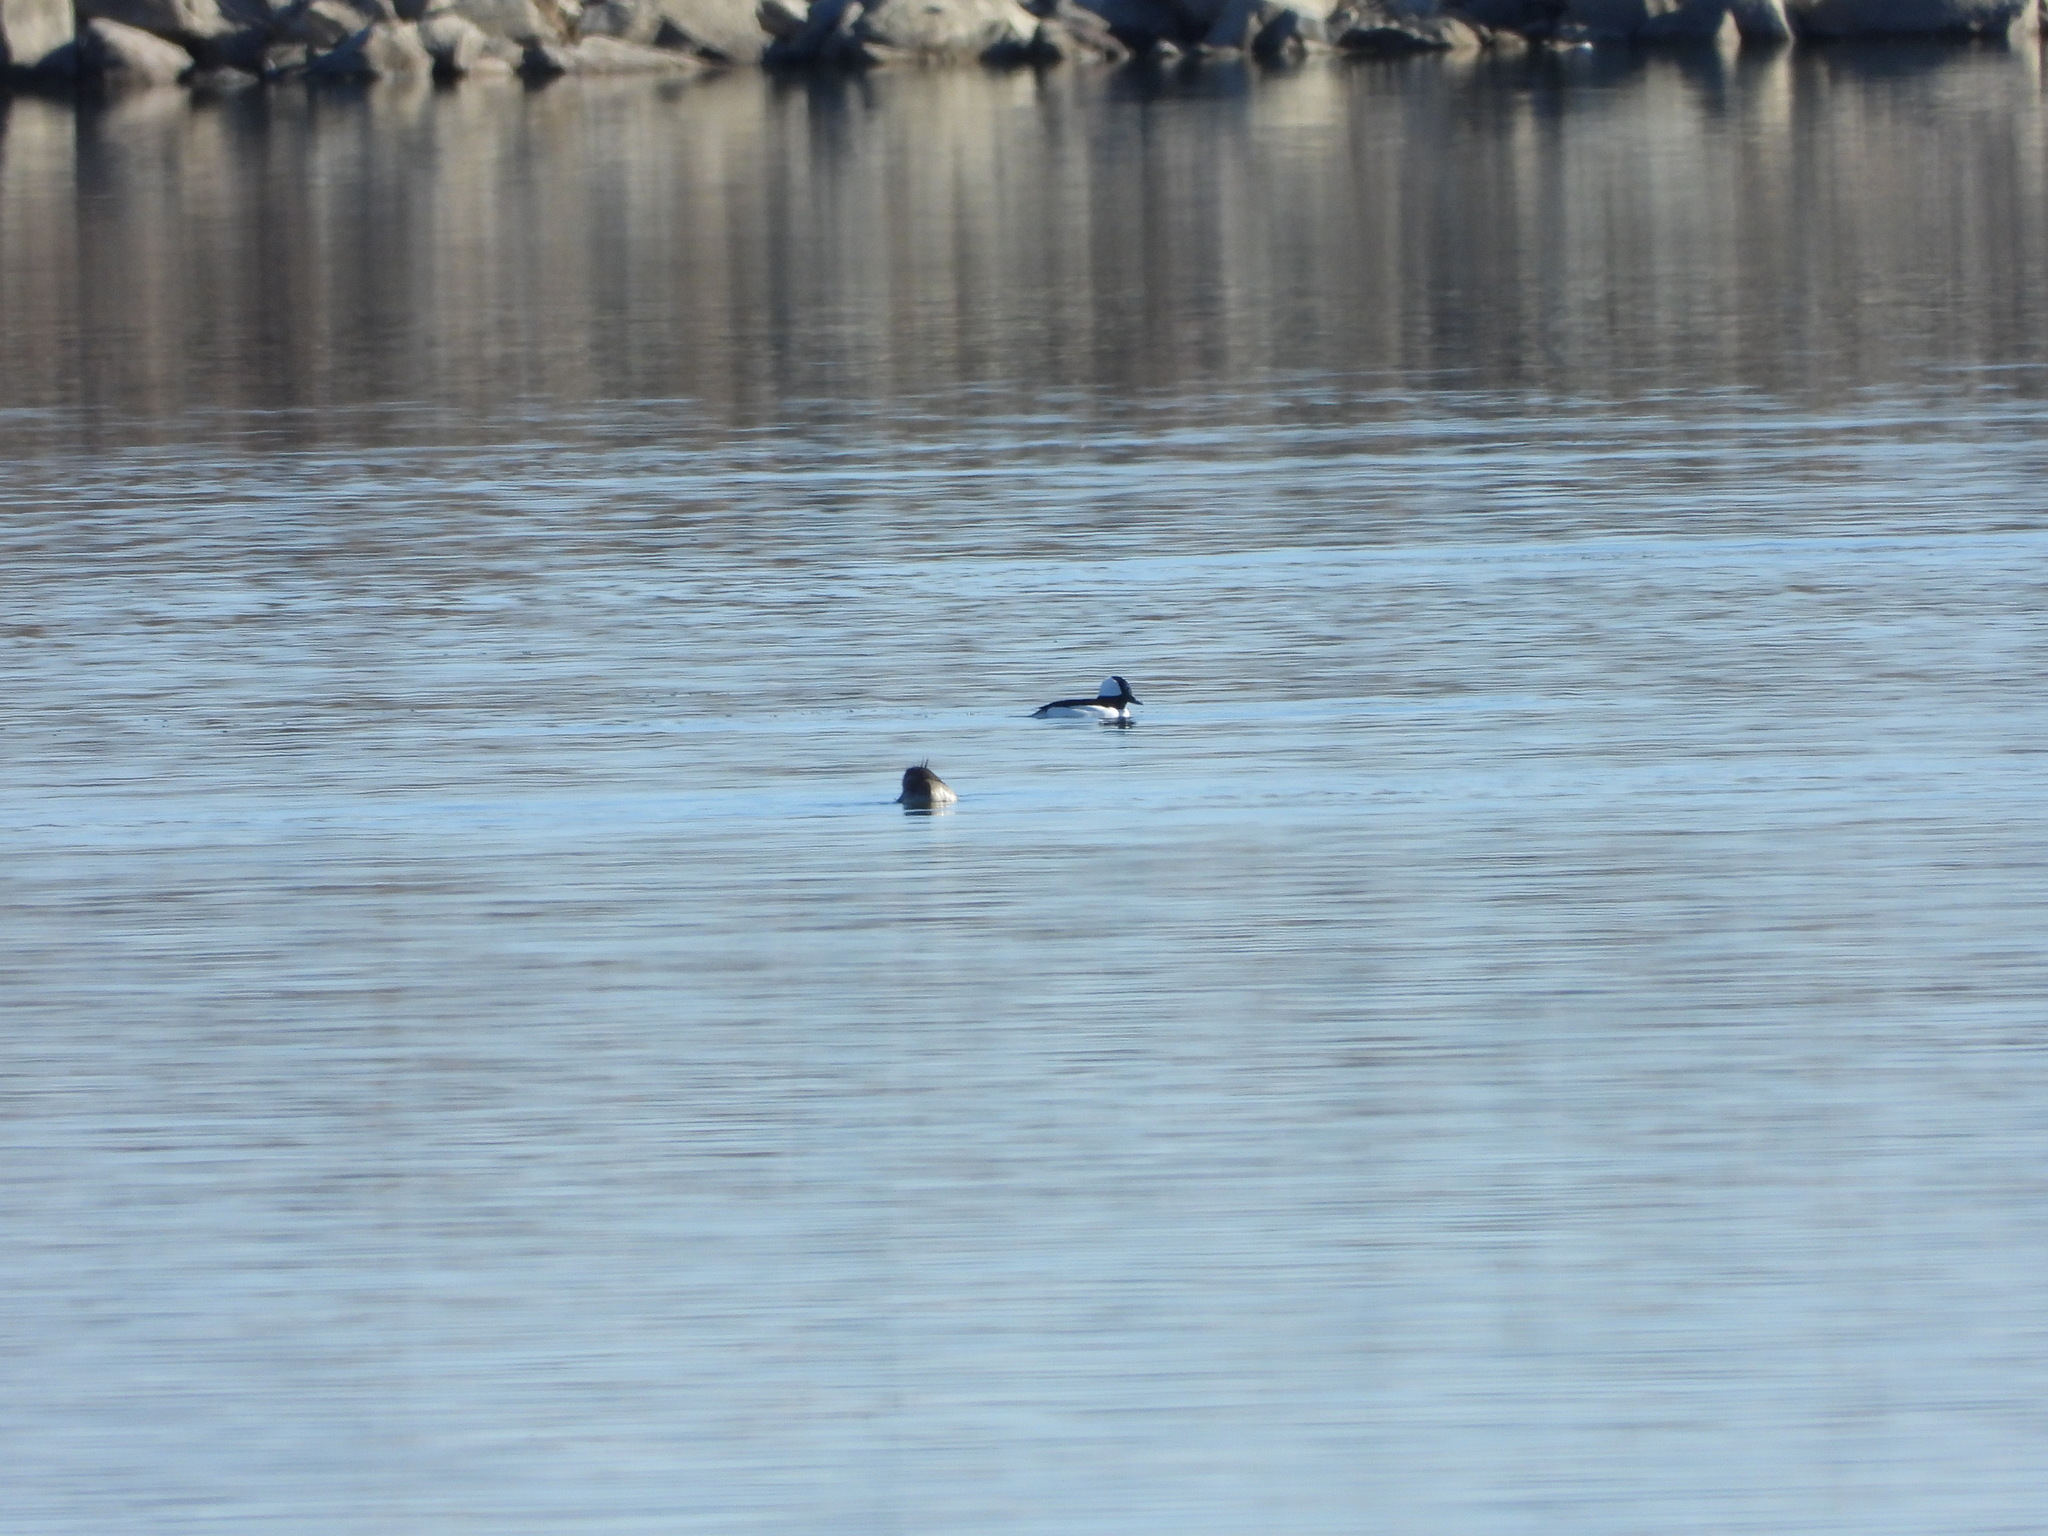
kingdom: Animalia
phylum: Chordata
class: Aves
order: Anseriformes
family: Anatidae
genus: Bucephala
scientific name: Bucephala albeola
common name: Bufflehead
